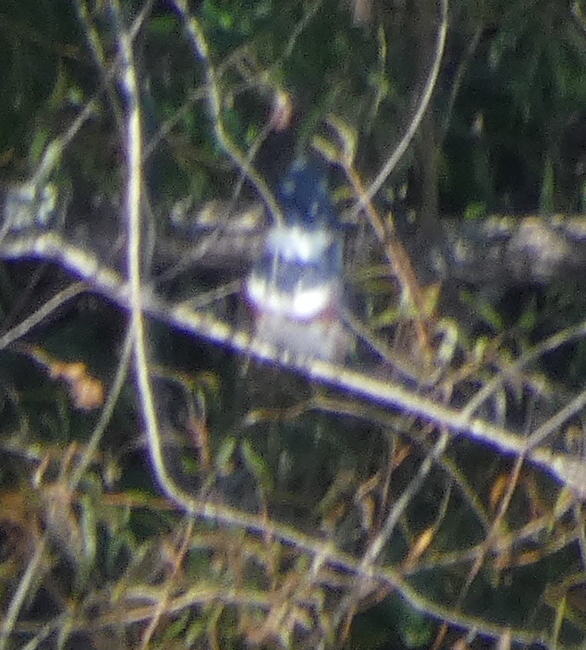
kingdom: Animalia
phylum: Chordata
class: Aves
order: Coraciiformes
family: Alcedinidae
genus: Megaceryle
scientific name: Megaceryle alcyon
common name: Belted kingfisher
